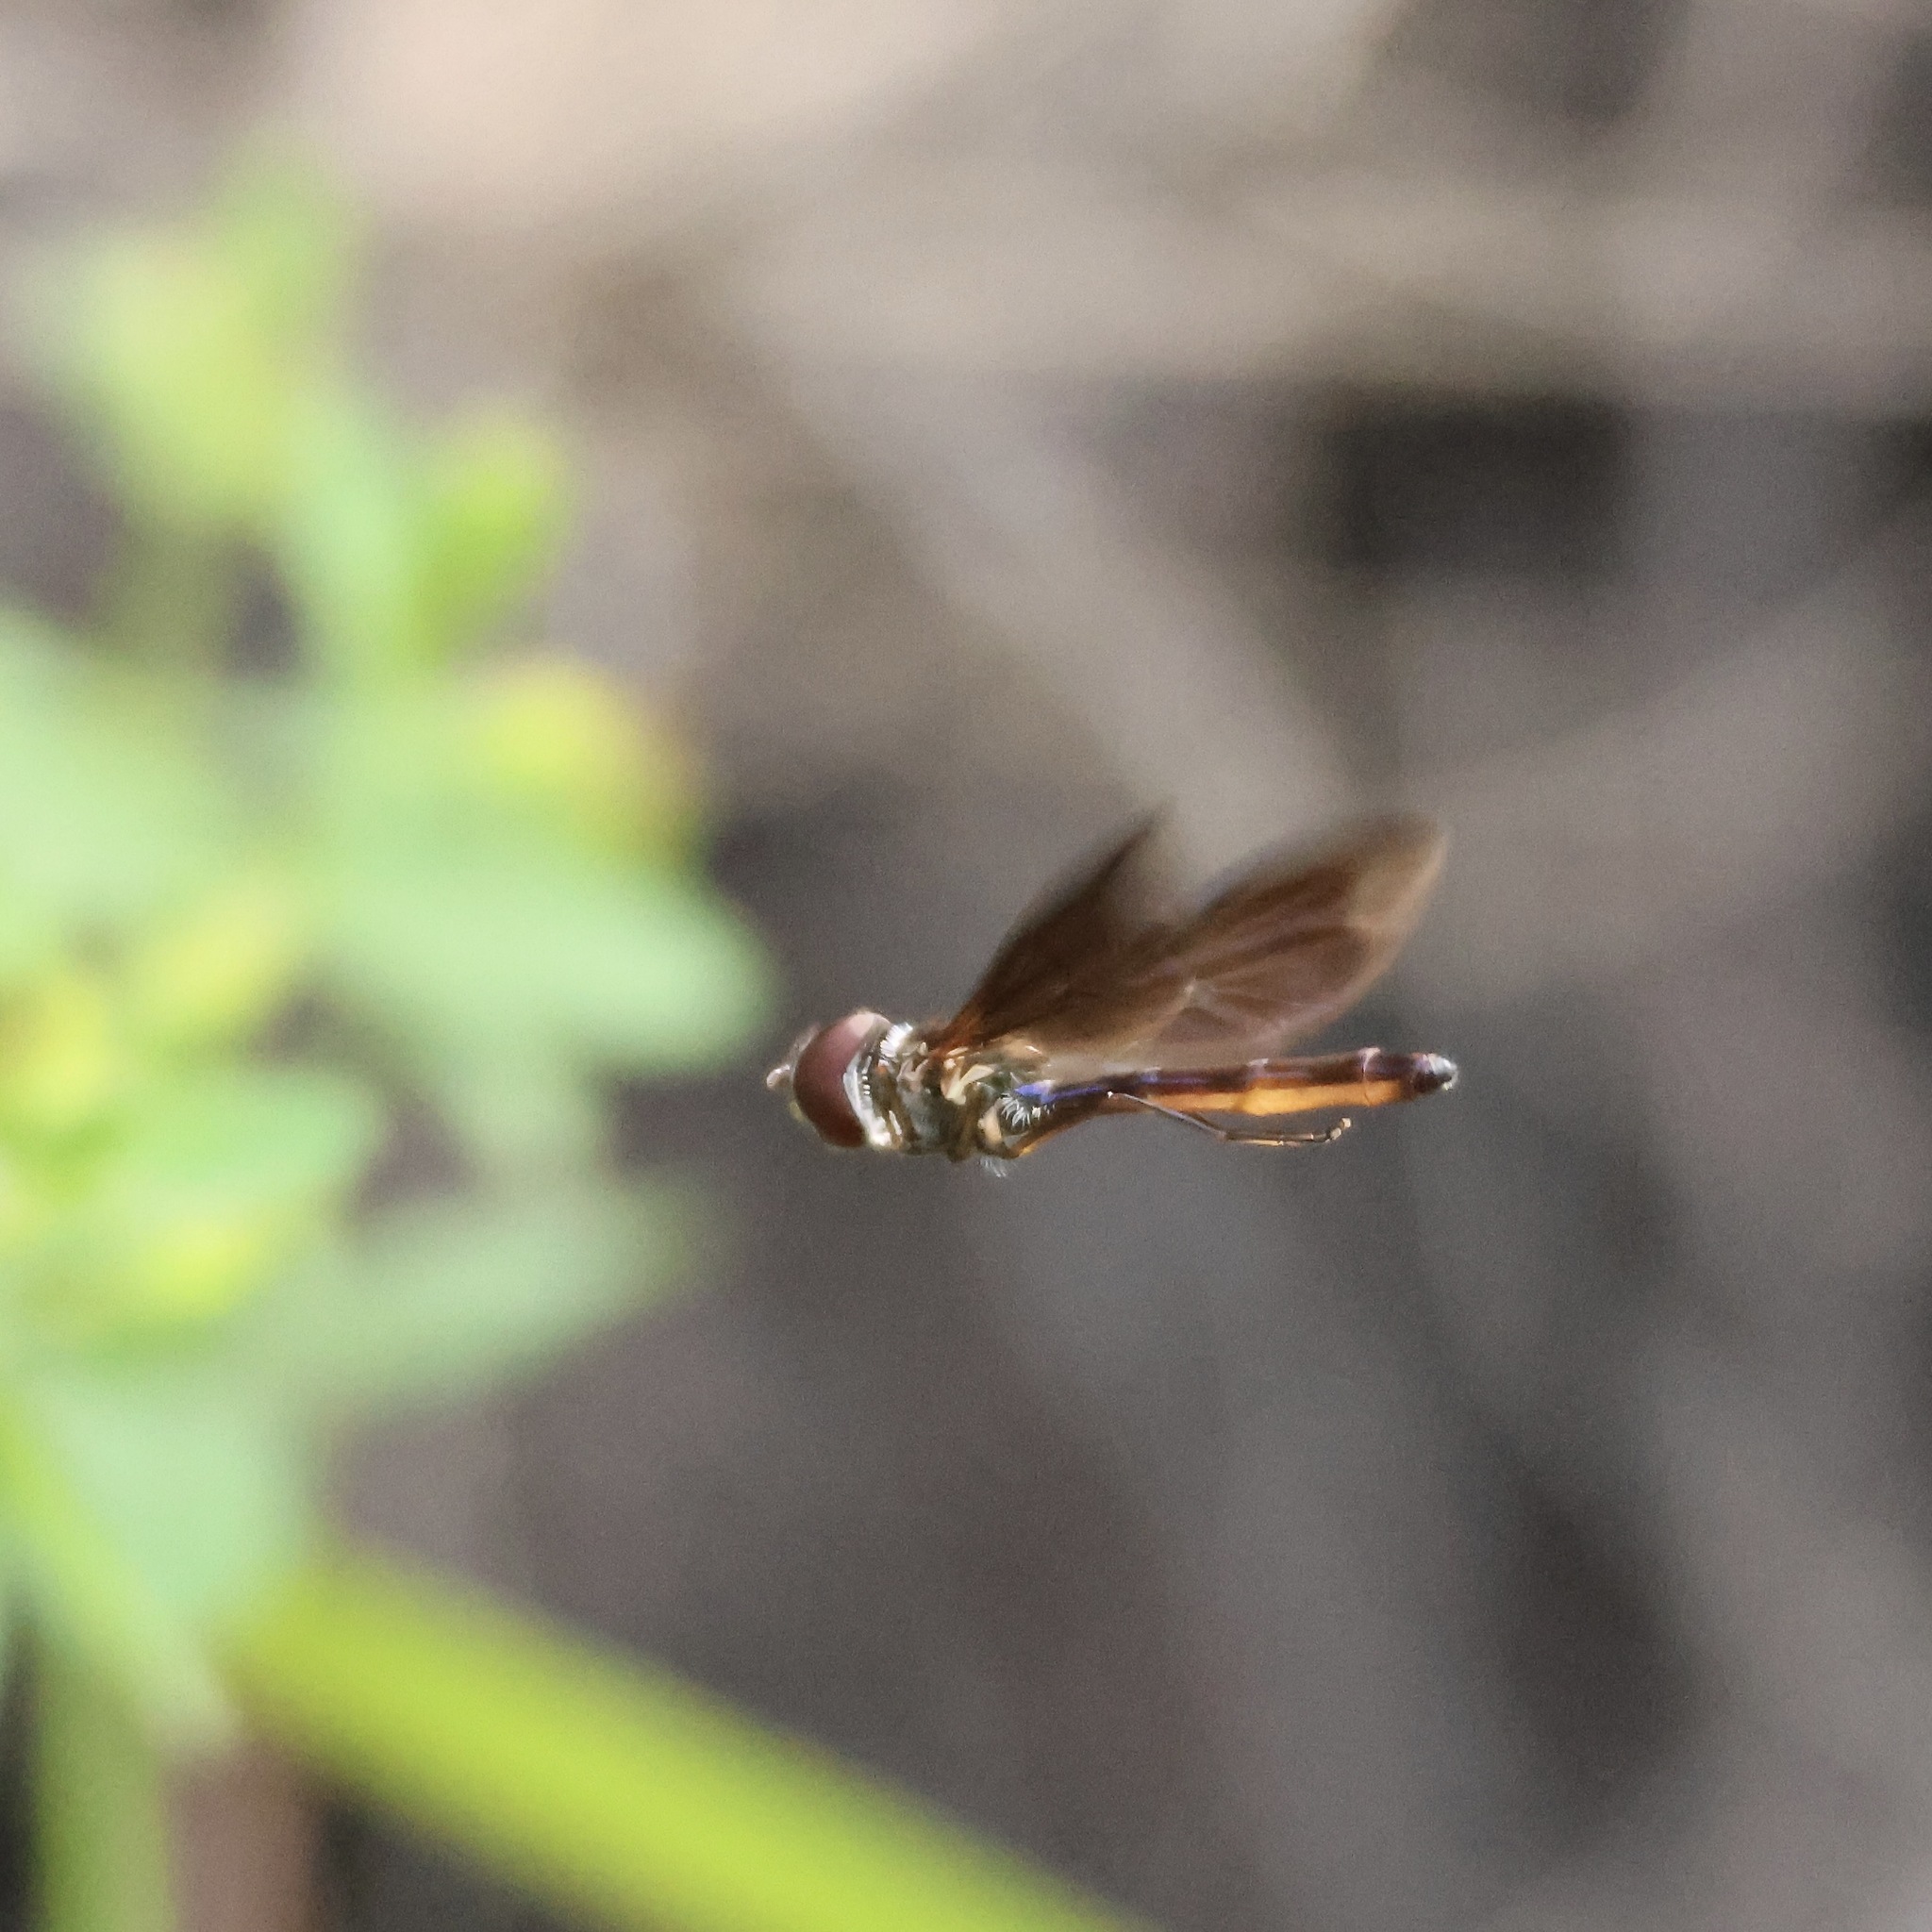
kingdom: Animalia
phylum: Arthropoda
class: Insecta
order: Diptera
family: Syrphidae
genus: Ocyptamus
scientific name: Ocyptamus fuscipennis
